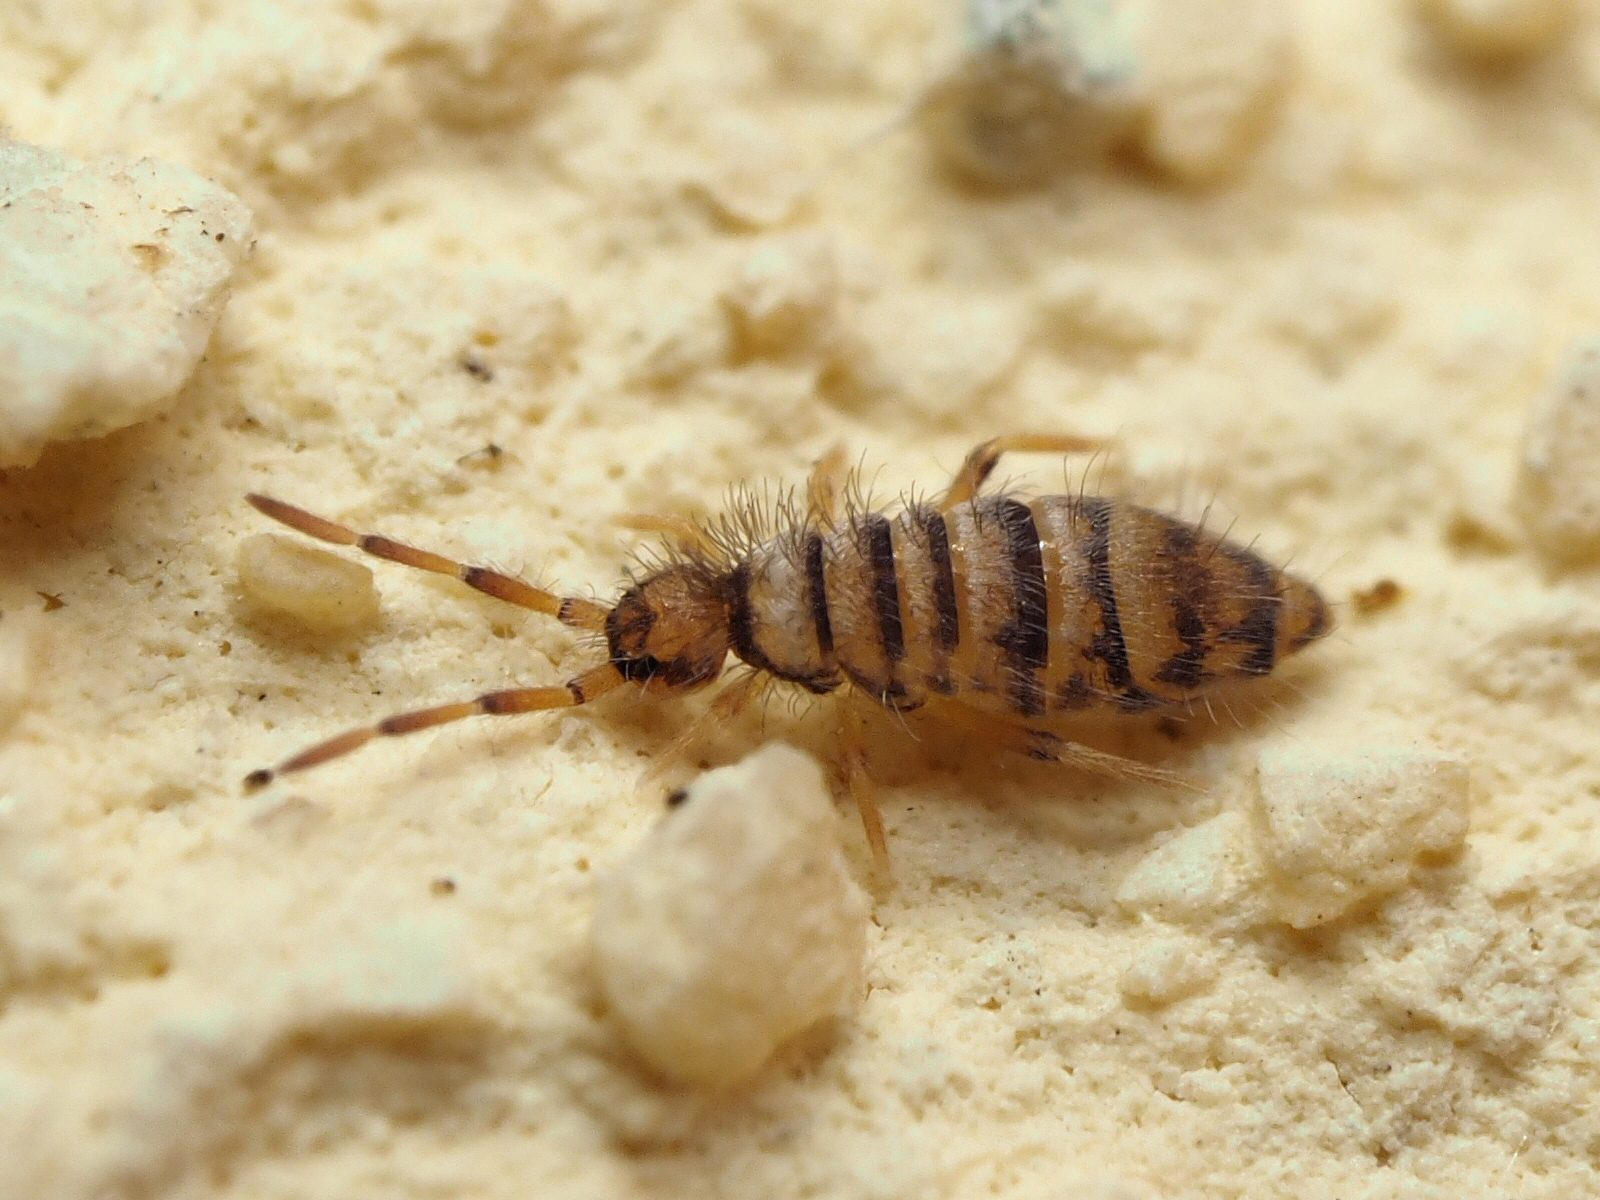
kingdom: Animalia
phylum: Arthropoda
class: Collembola
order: Entomobryomorpha
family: Entomobryidae
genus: Entomobrya
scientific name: Entomobrya multifasciata
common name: Springtail
